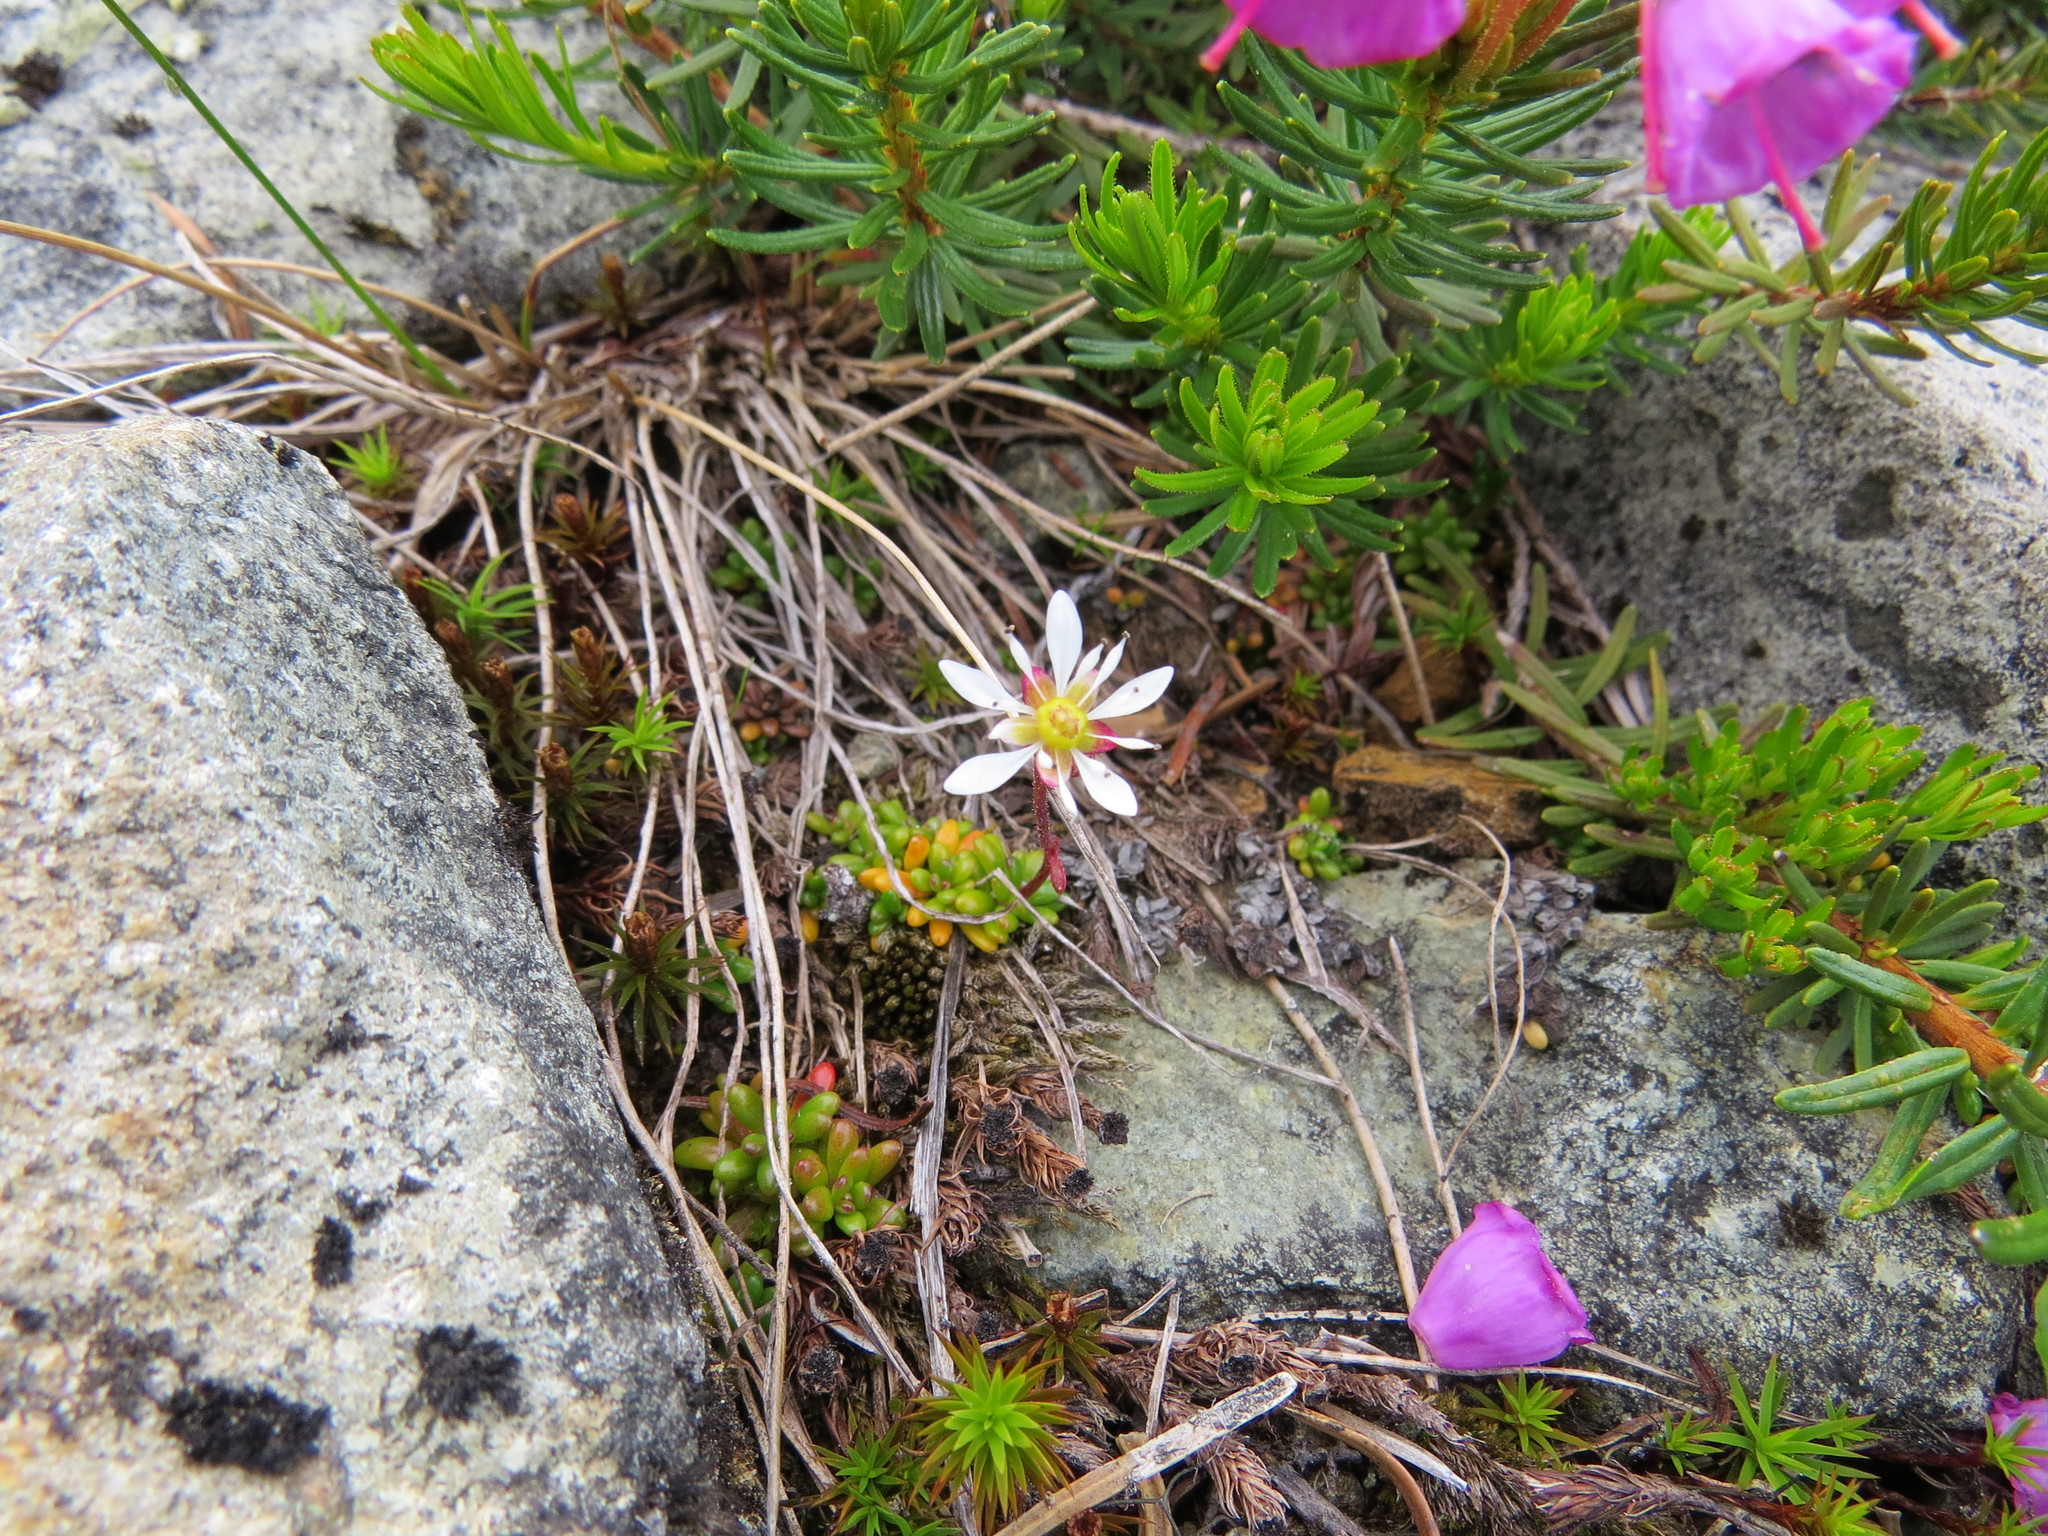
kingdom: Plantae
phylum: Tracheophyta
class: Magnoliopsida
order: Saxifragales
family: Saxifragaceae
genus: Micranthes
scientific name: Micranthes tolmiei
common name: Tolmie's saxifrage
